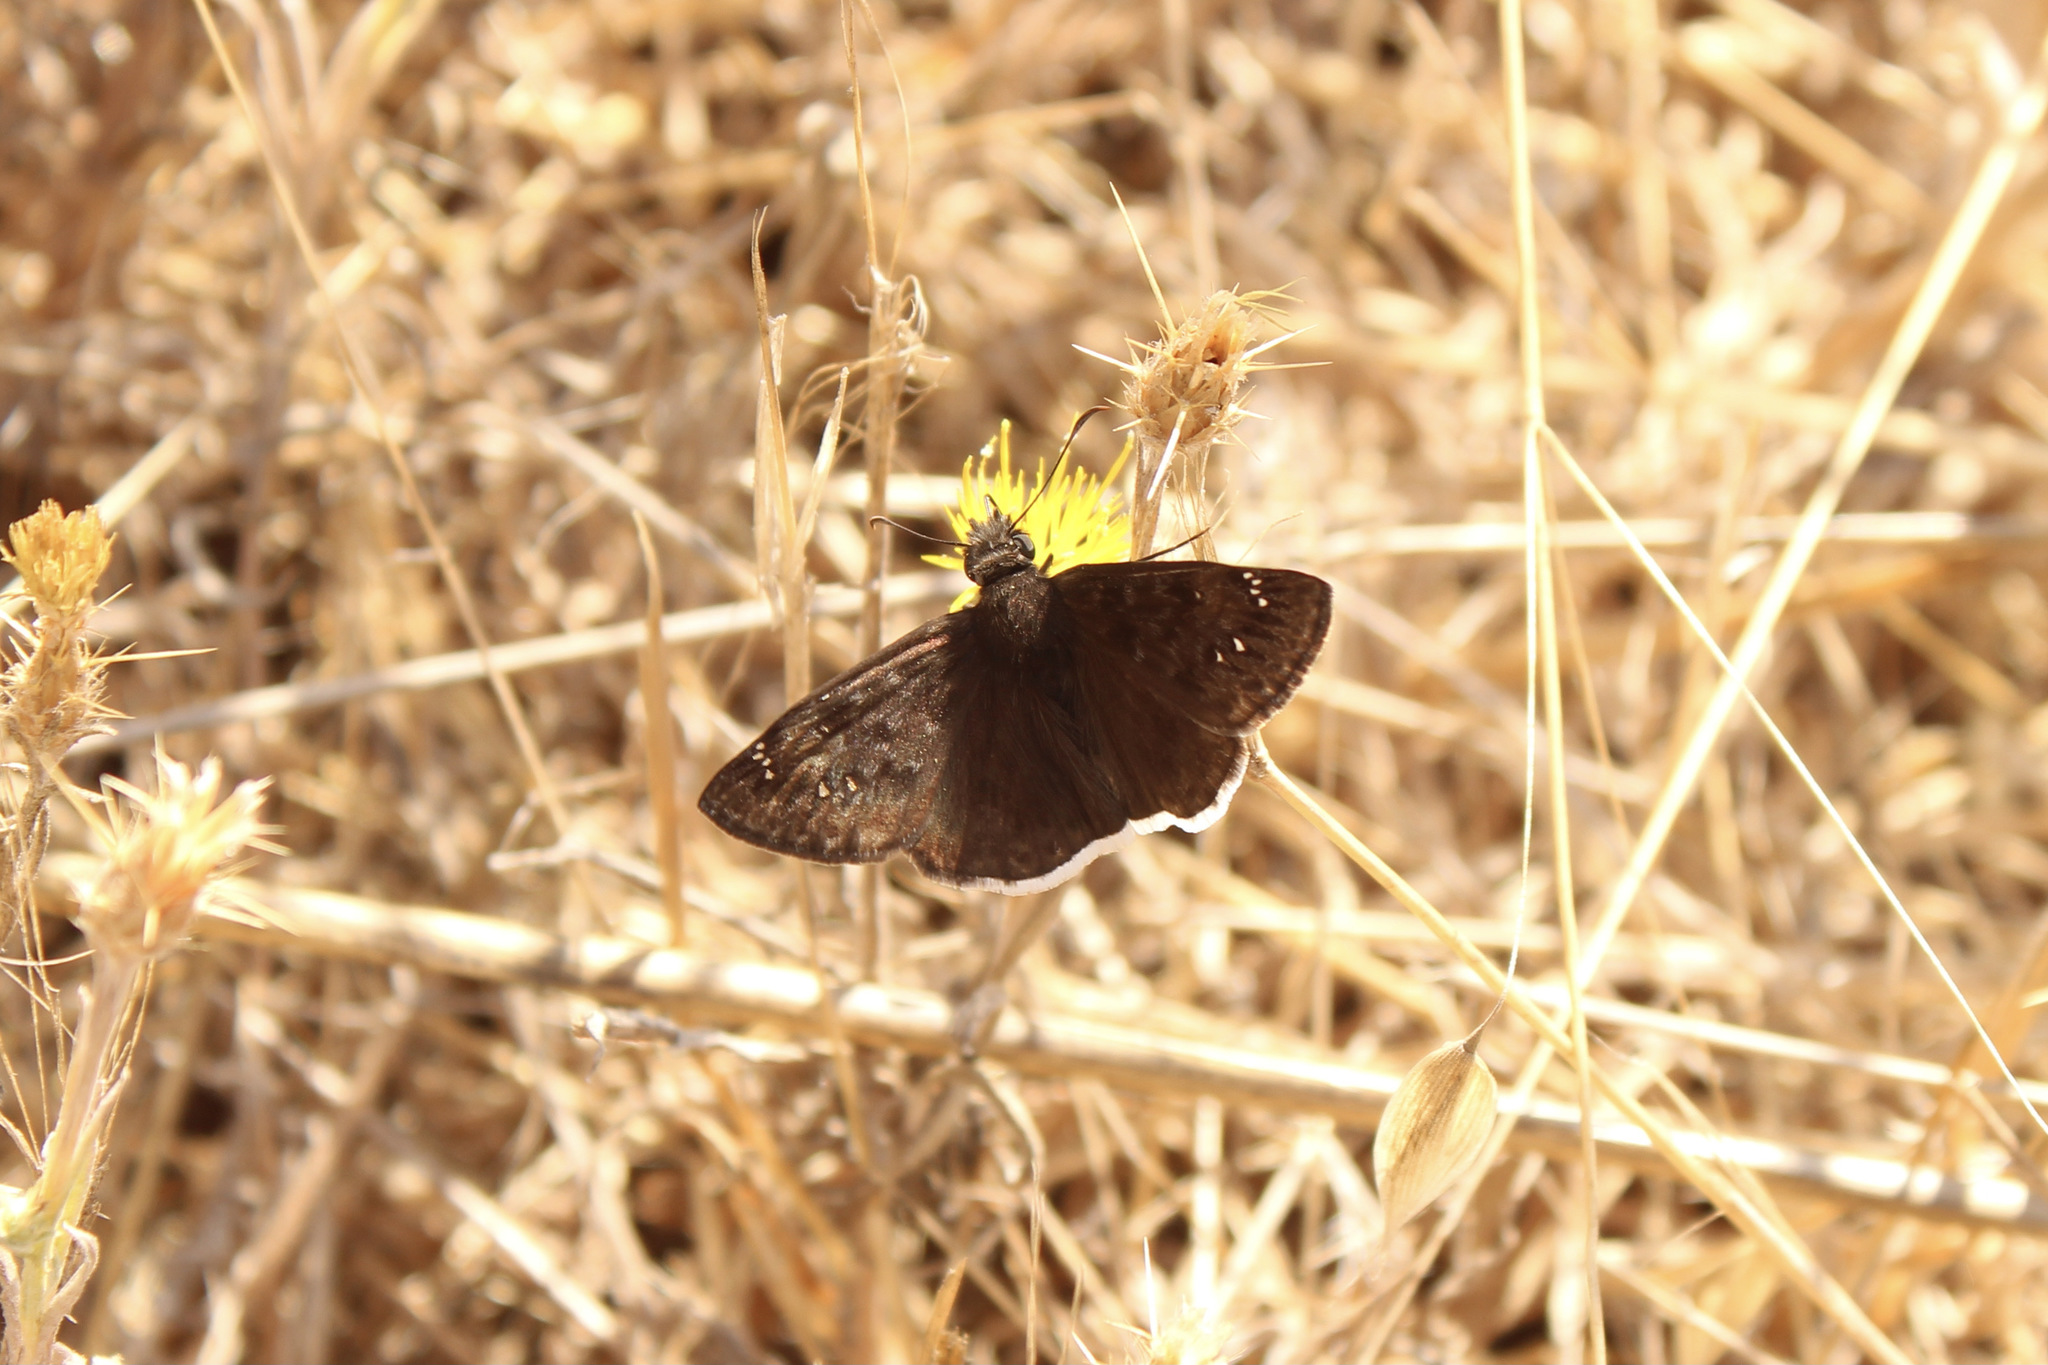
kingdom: Animalia
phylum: Arthropoda
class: Insecta
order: Lepidoptera
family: Hesperiidae
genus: Erynnis
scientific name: Erynnis tristis
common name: Mournful duskywing
